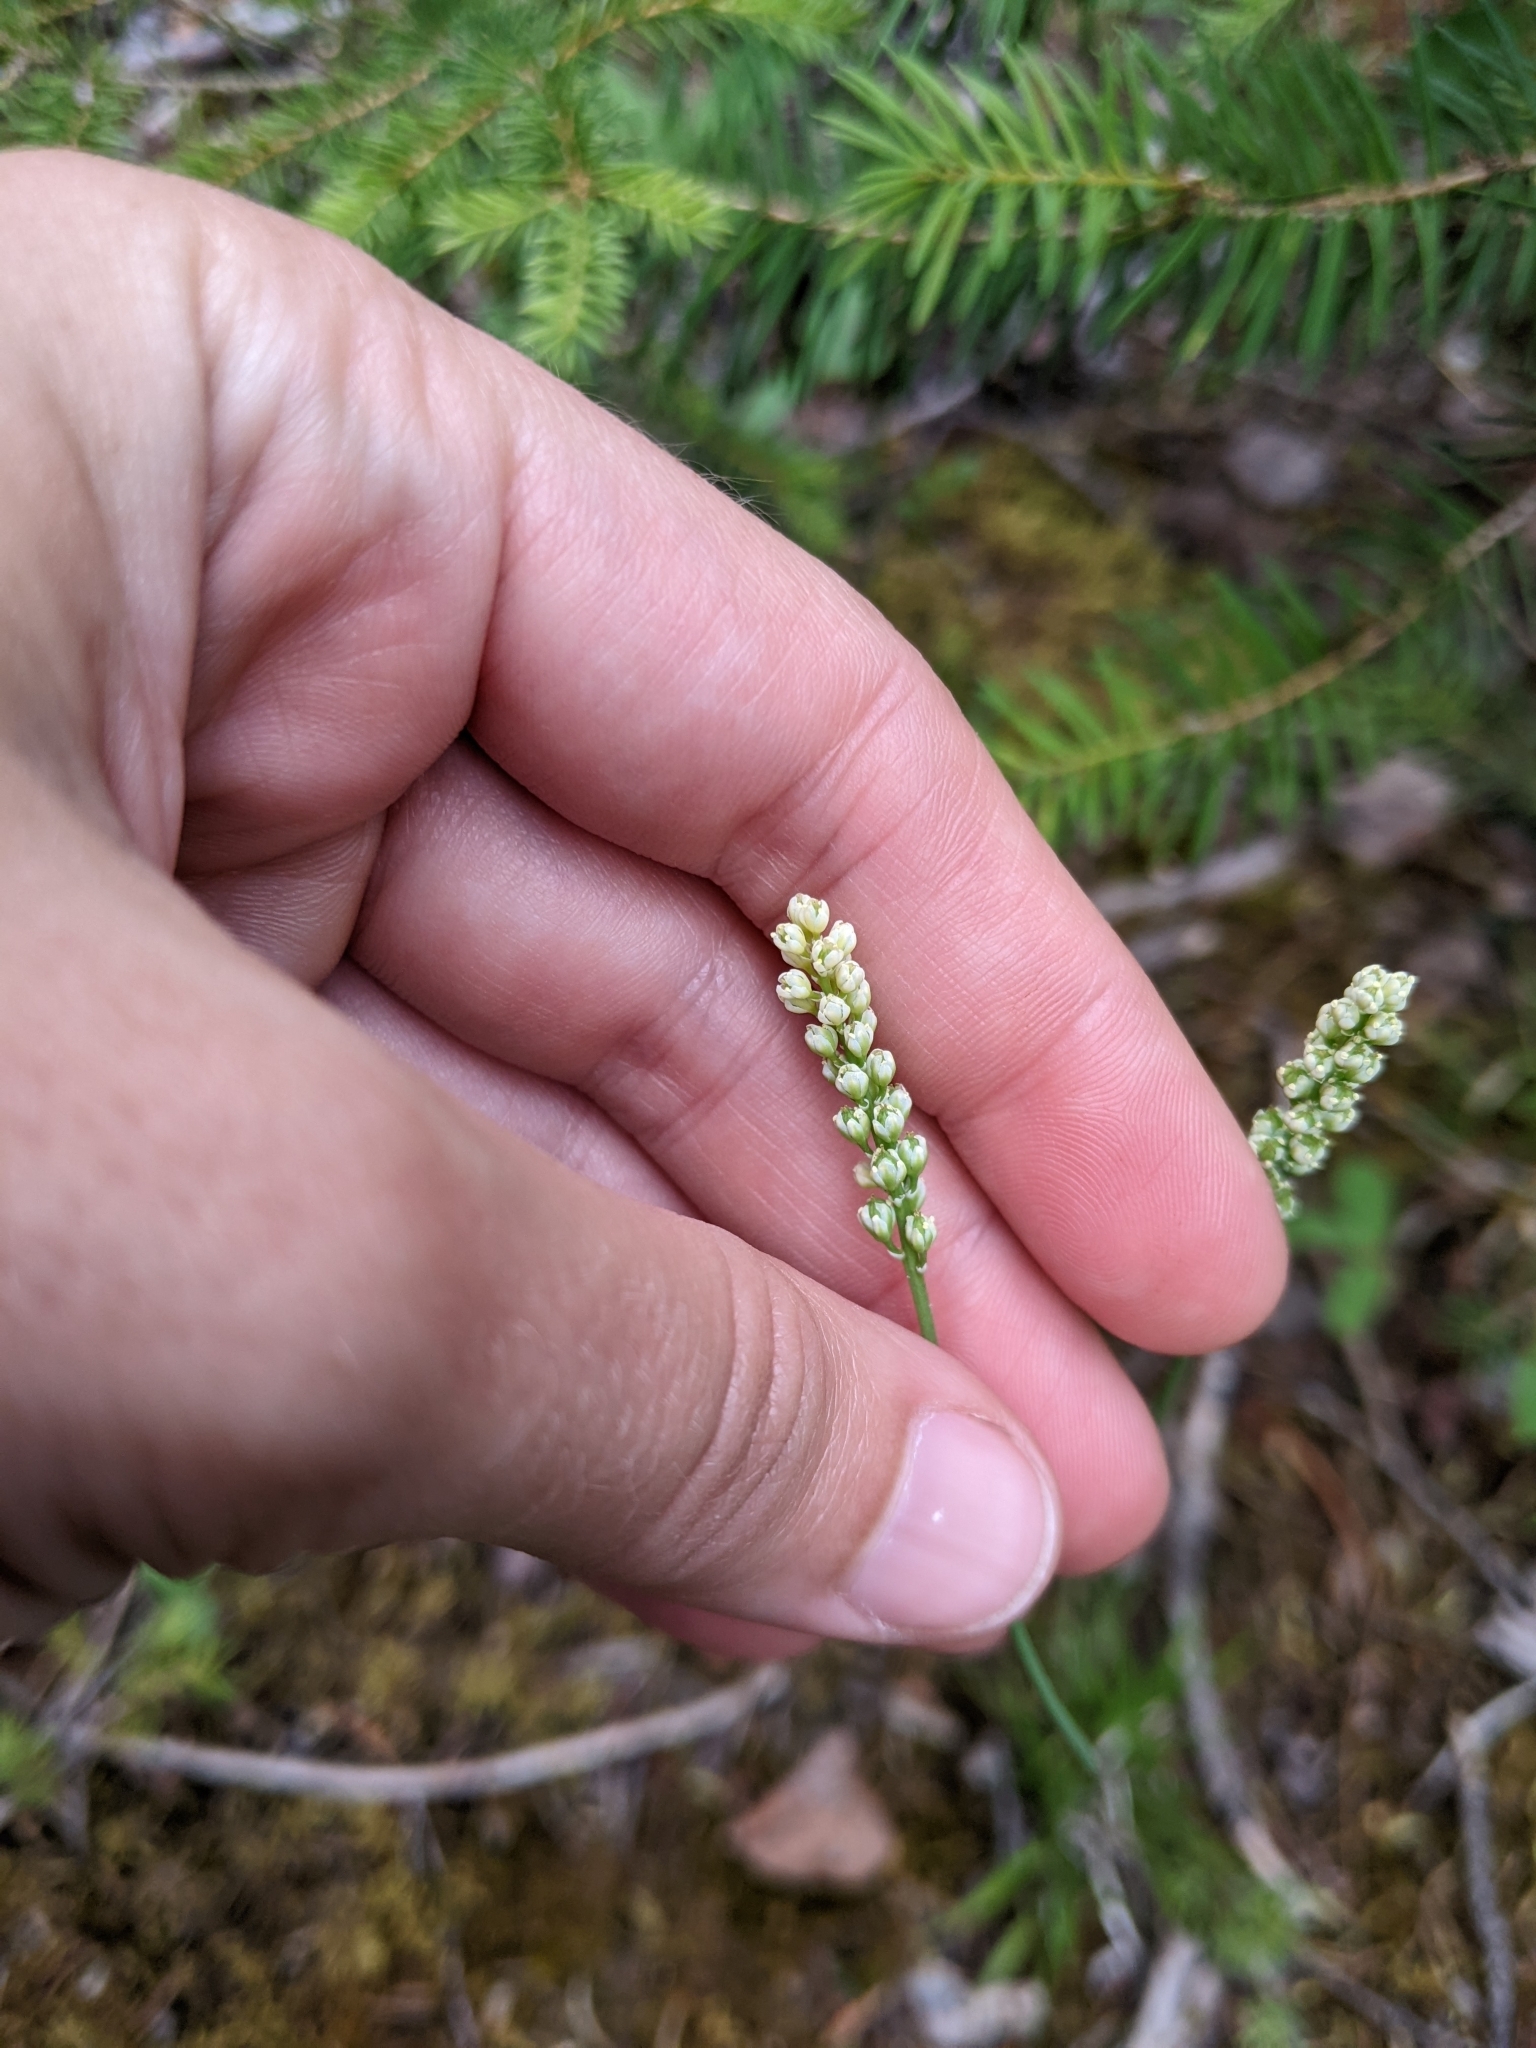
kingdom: Plantae
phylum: Tracheophyta
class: Liliopsida
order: Alismatales
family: Tofieldiaceae
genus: Tofieldia
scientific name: Tofieldia pusilla
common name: Scottish false asphodel
